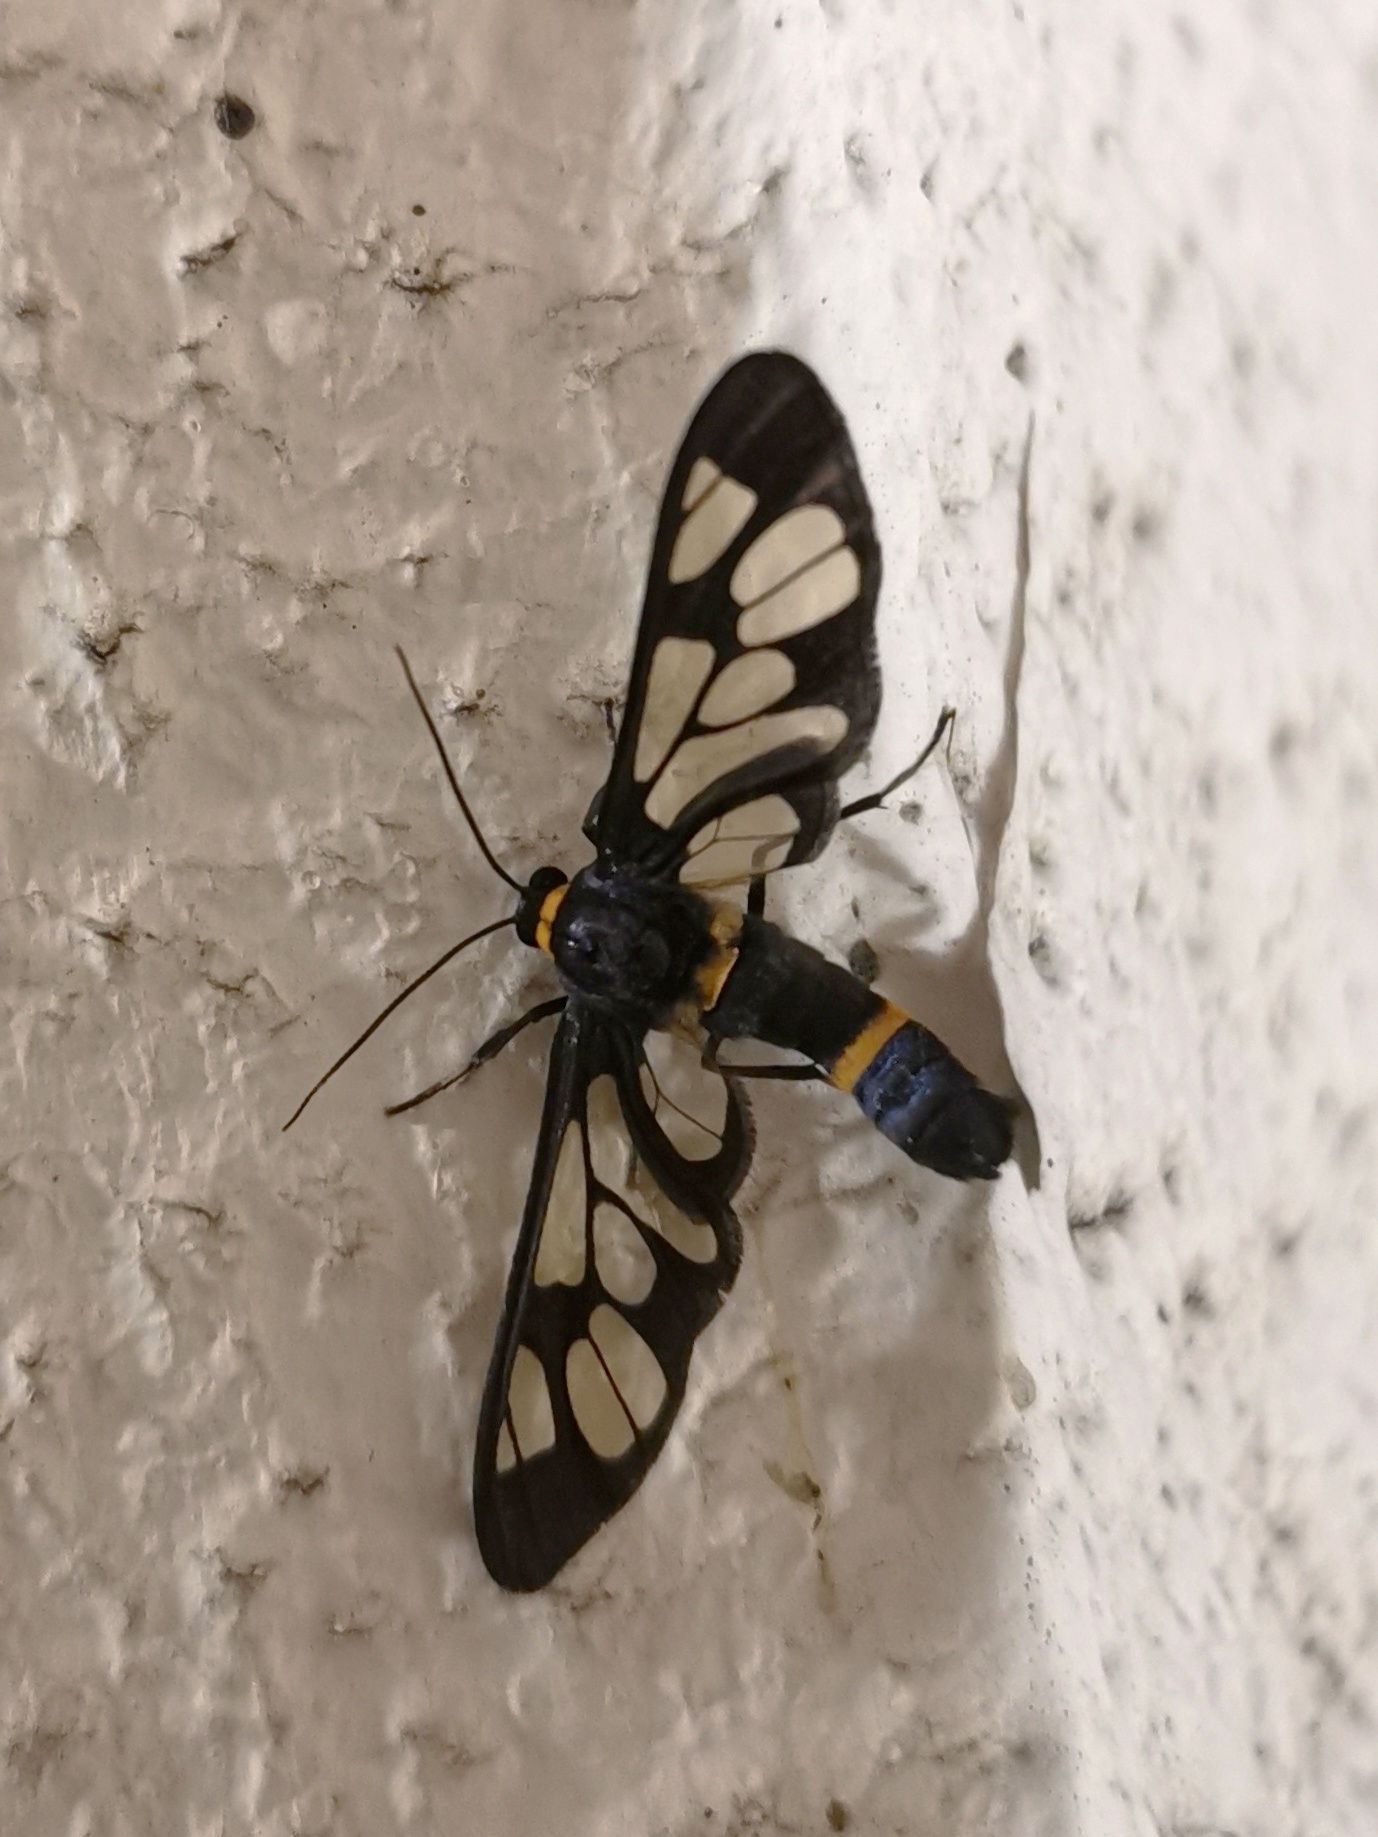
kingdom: Animalia
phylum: Arthropoda
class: Insecta
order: Lepidoptera
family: Erebidae
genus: Syntomoides
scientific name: Syntomoides imaon
